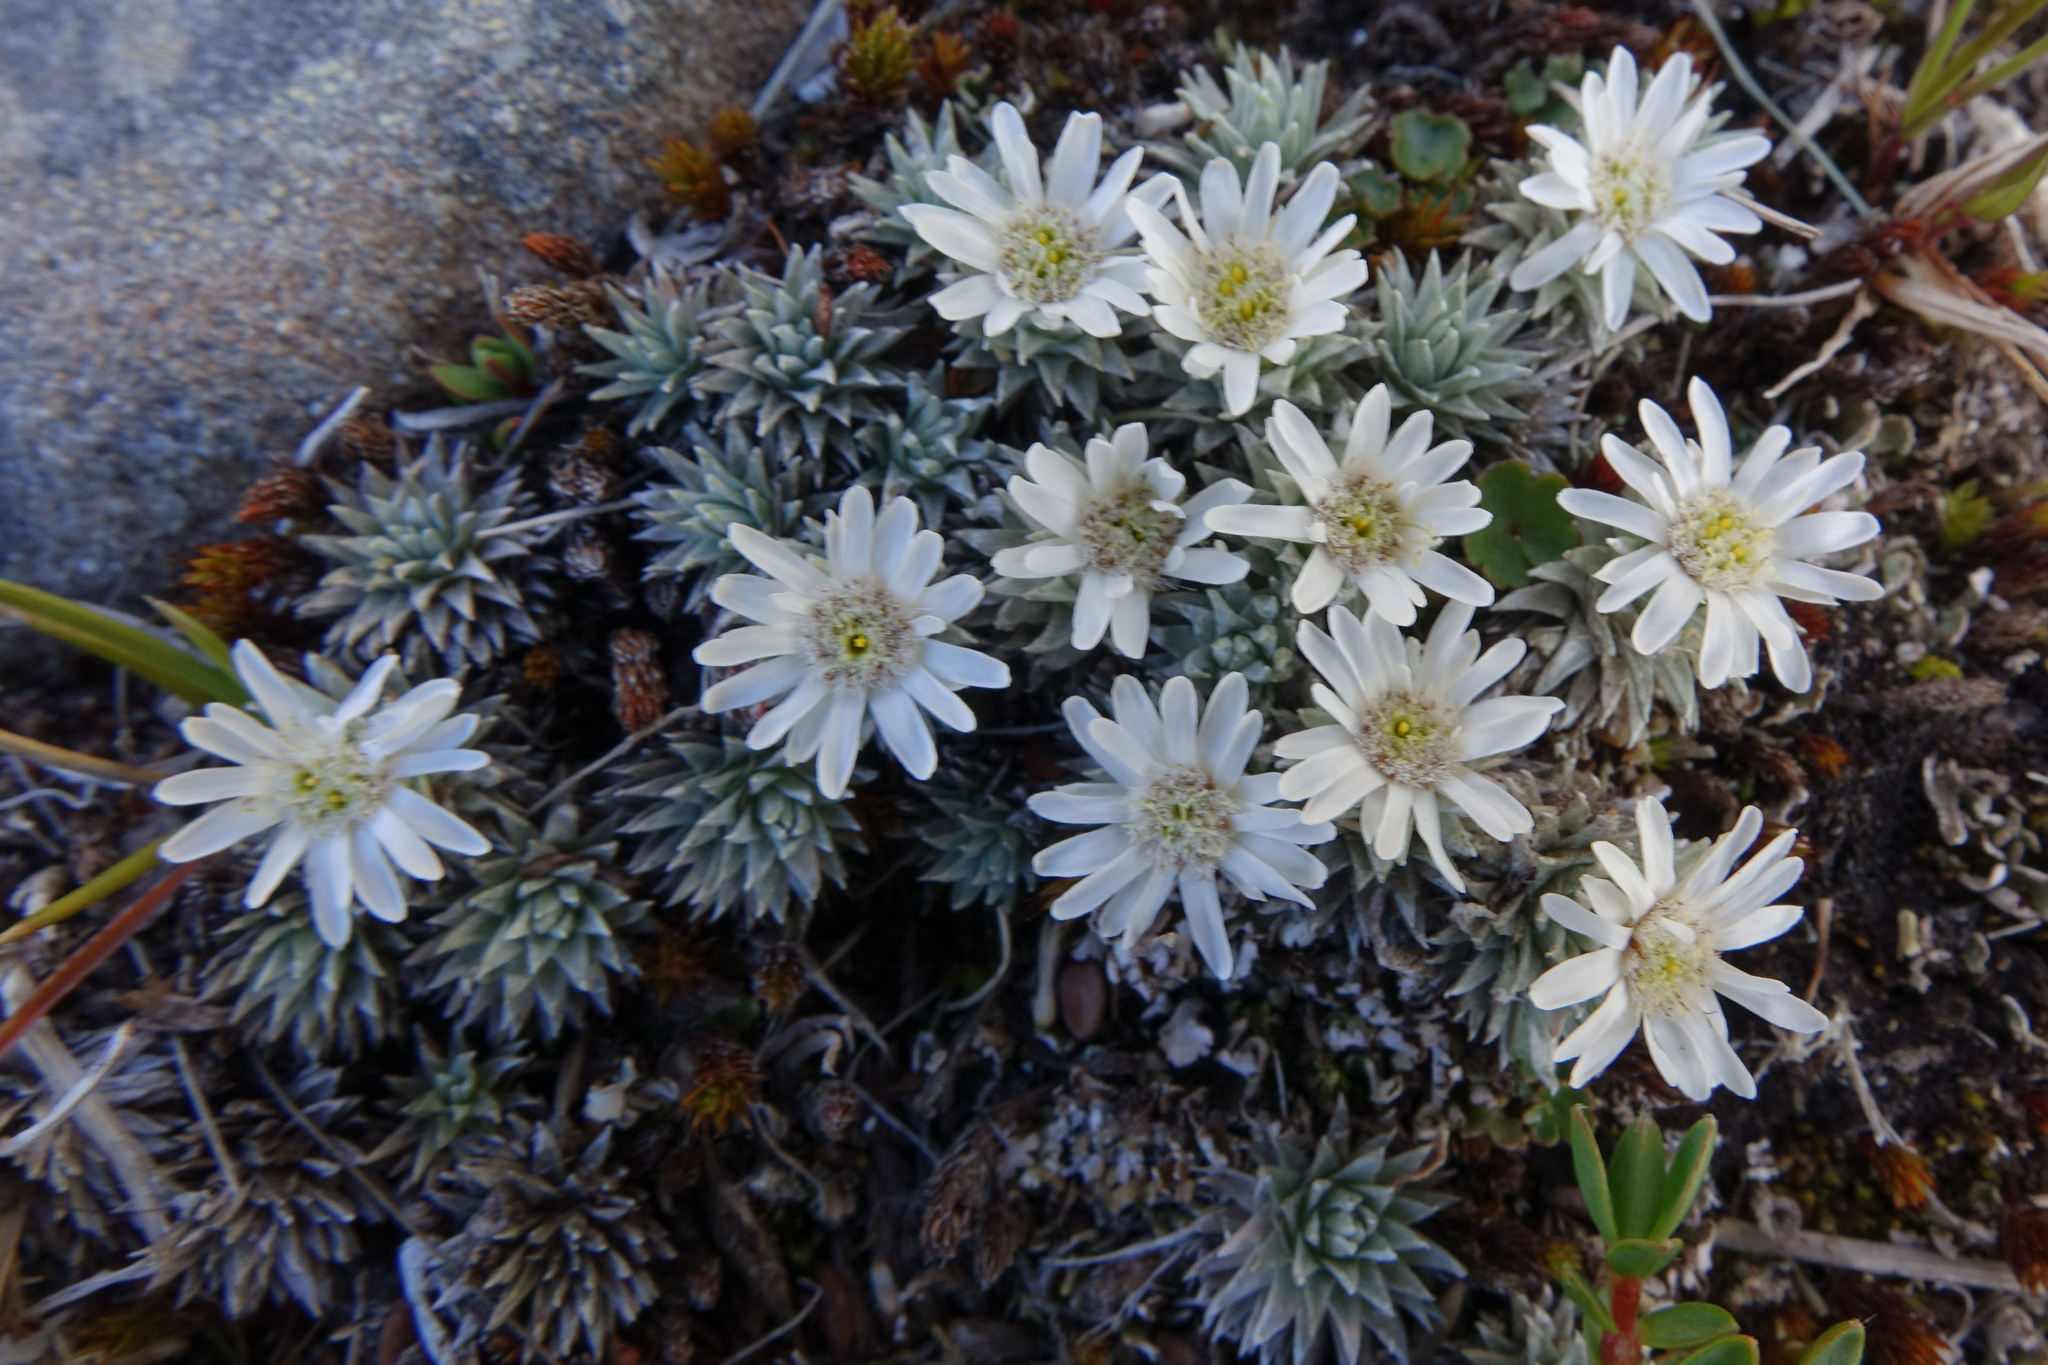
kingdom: Plantae
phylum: Tracheophyta
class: Magnoliopsida
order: Asterales
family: Asteraceae
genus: Raoulia
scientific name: Raoulia grandiflora
